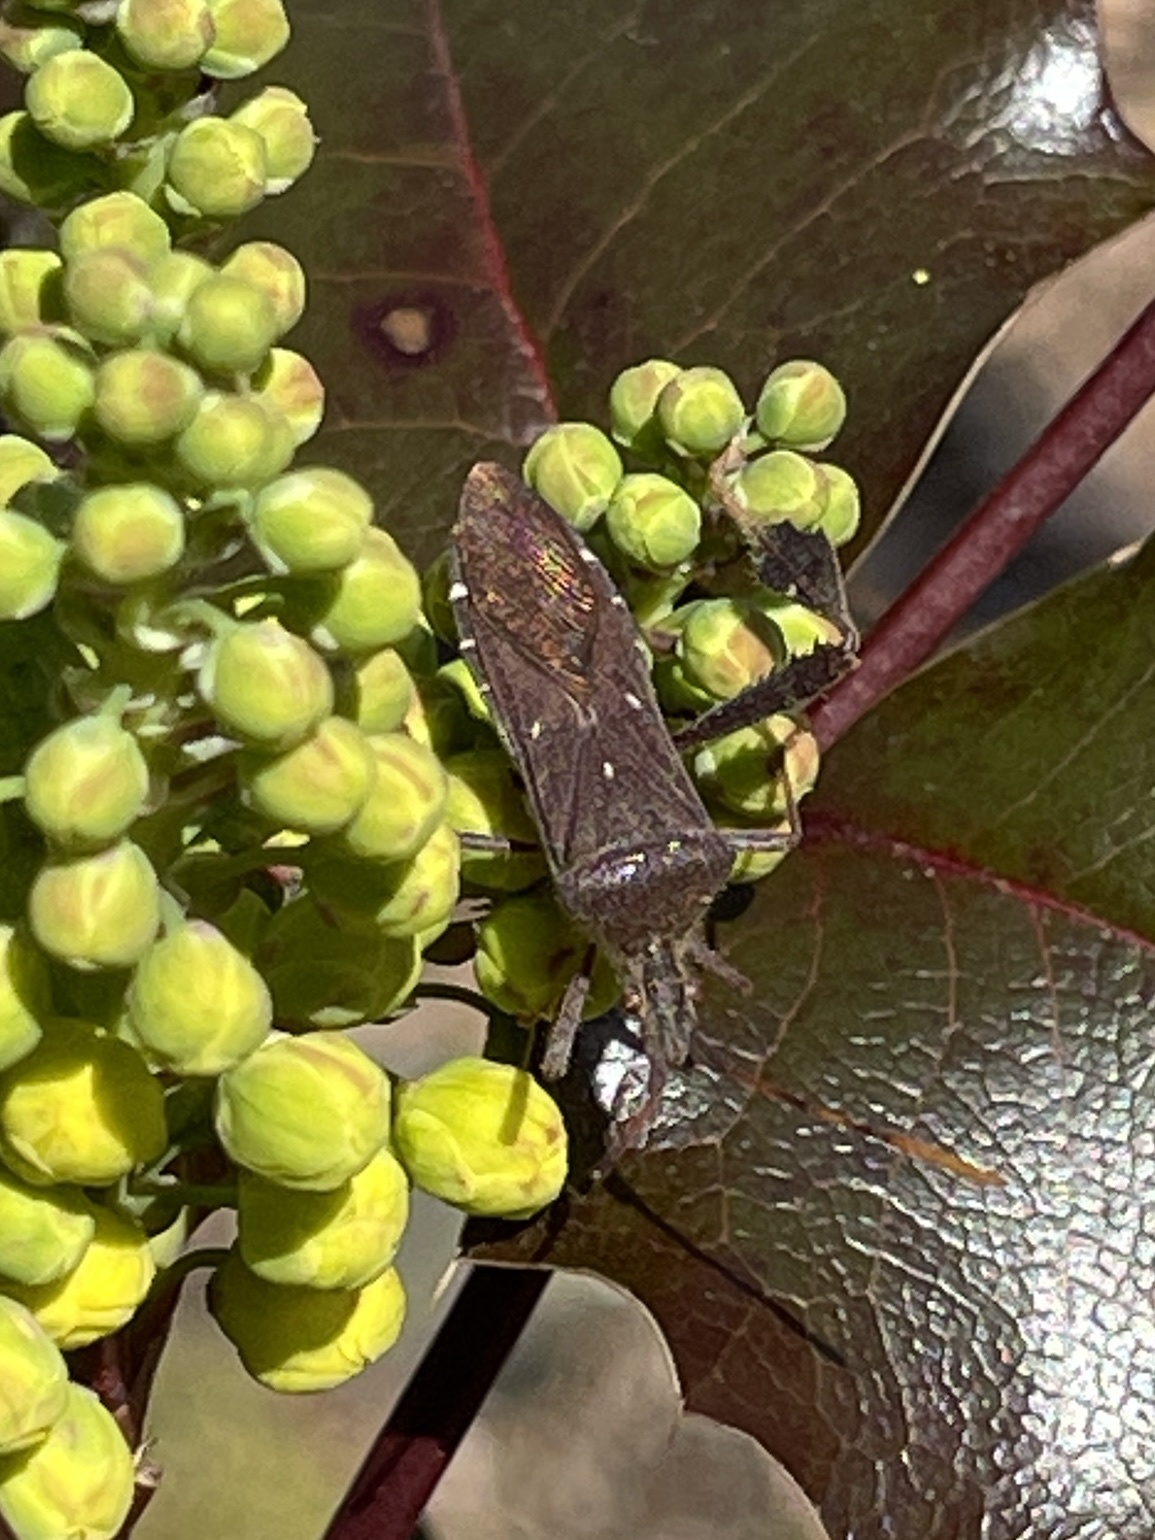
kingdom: Animalia
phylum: Arthropoda
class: Insecta
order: Hemiptera
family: Coreidae
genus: Leptoglossus
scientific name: Leptoglossus oppositus
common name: Northern leaf-footed bug
